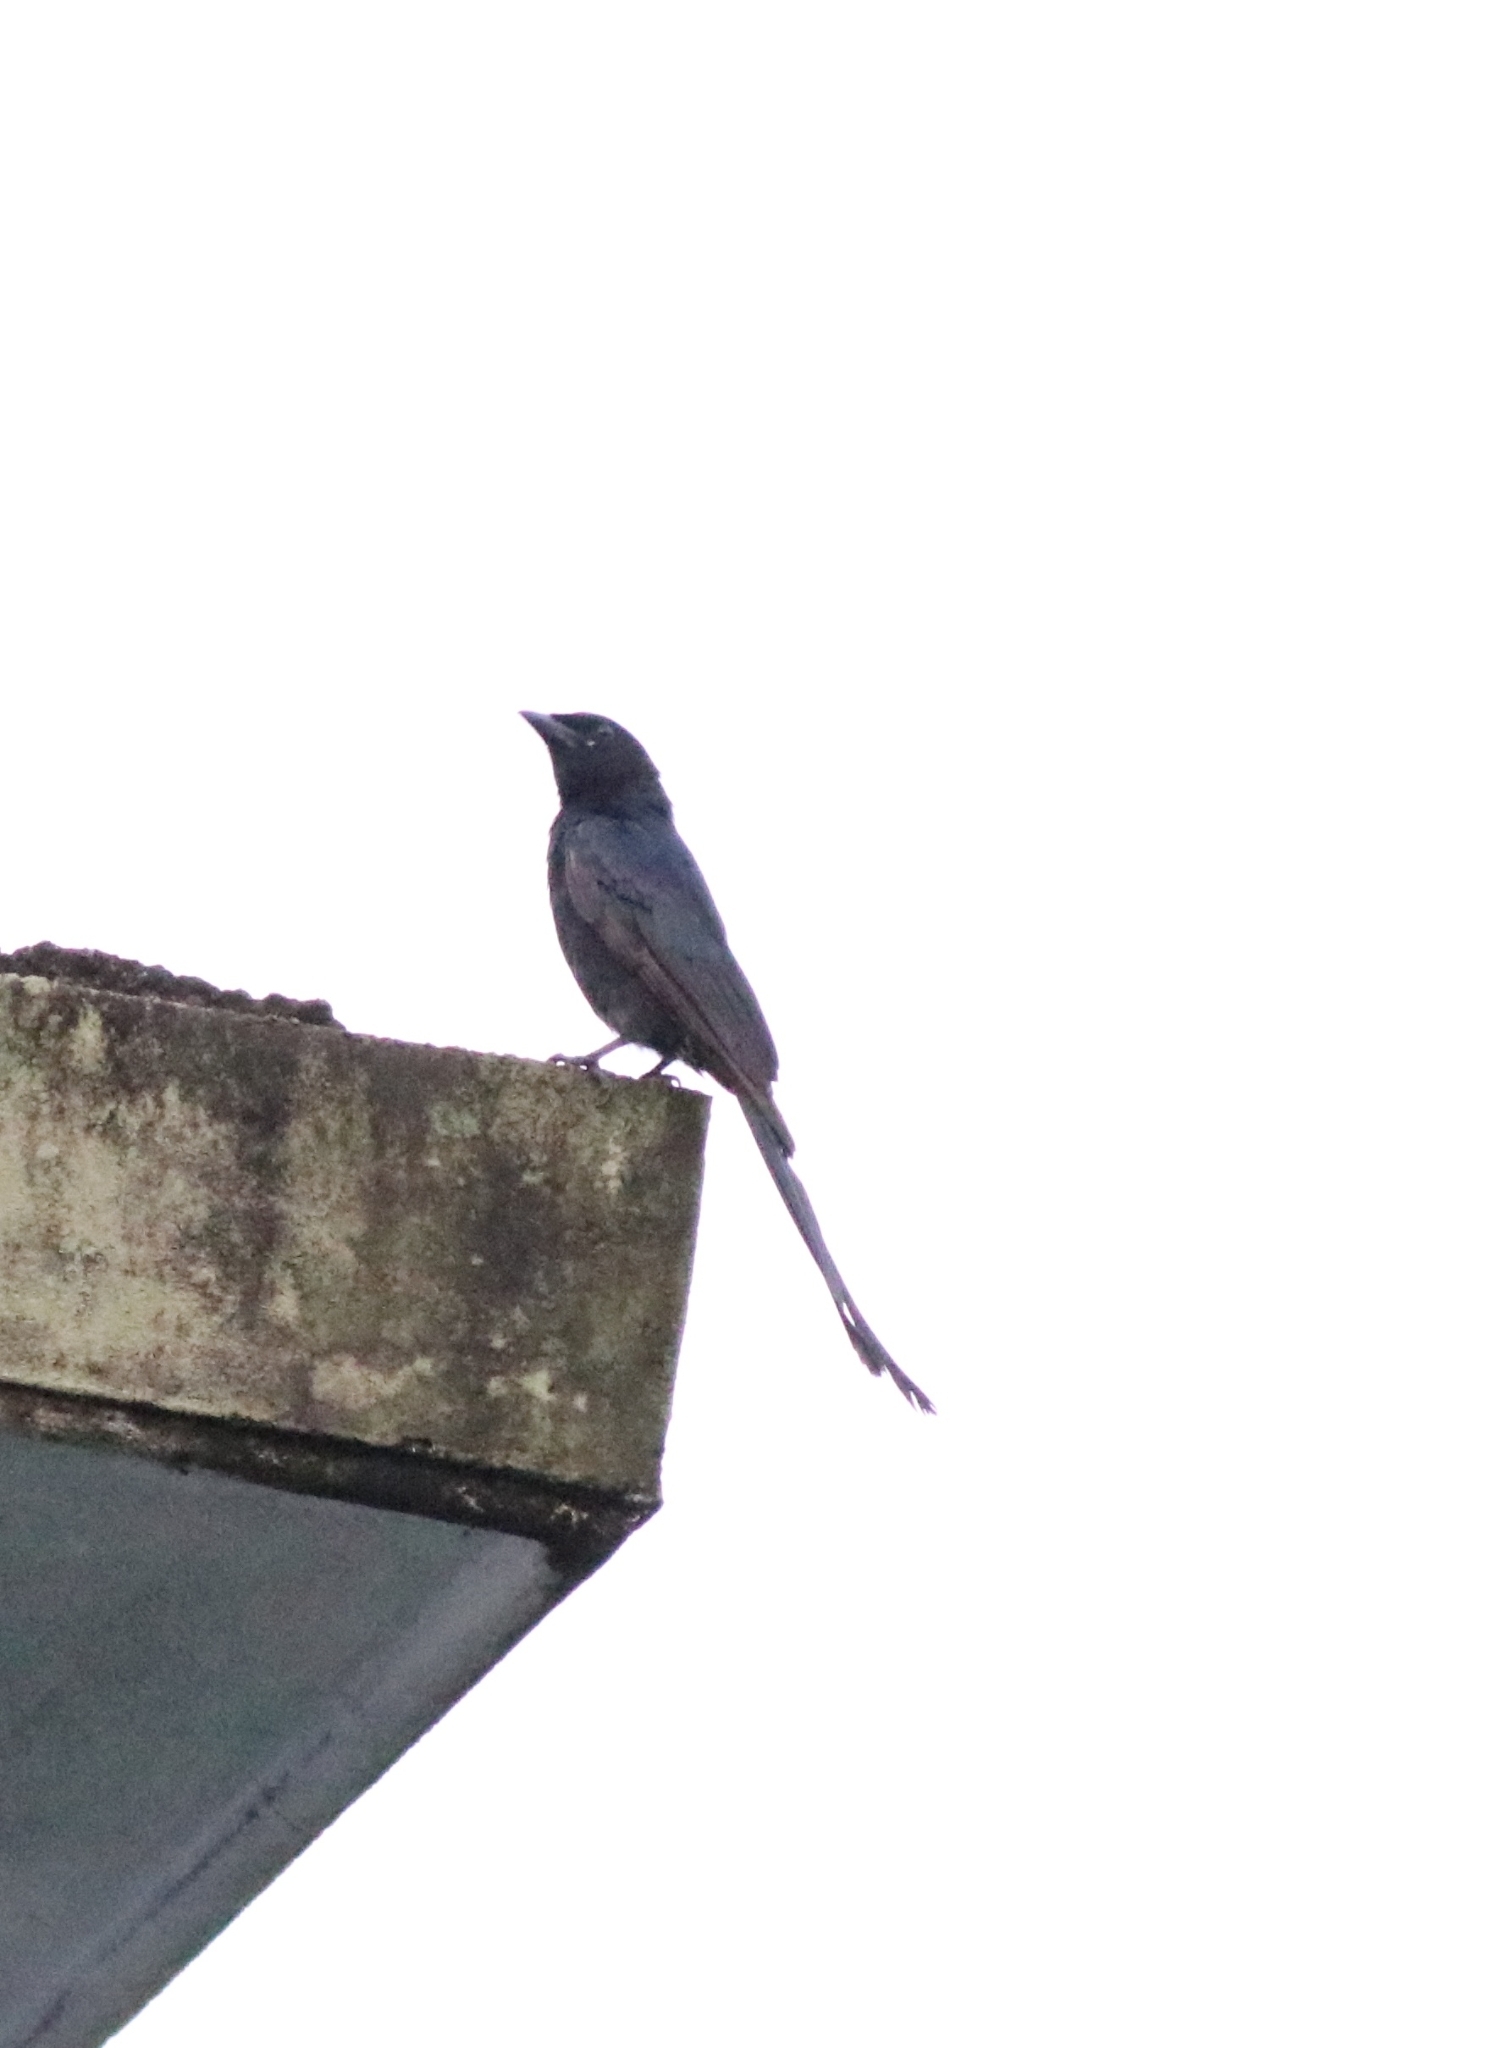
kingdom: Animalia
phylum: Chordata
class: Aves
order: Passeriformes
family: Dicruridae
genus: Dicrurus
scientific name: Dicrurus macrocercus
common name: Black drongo
